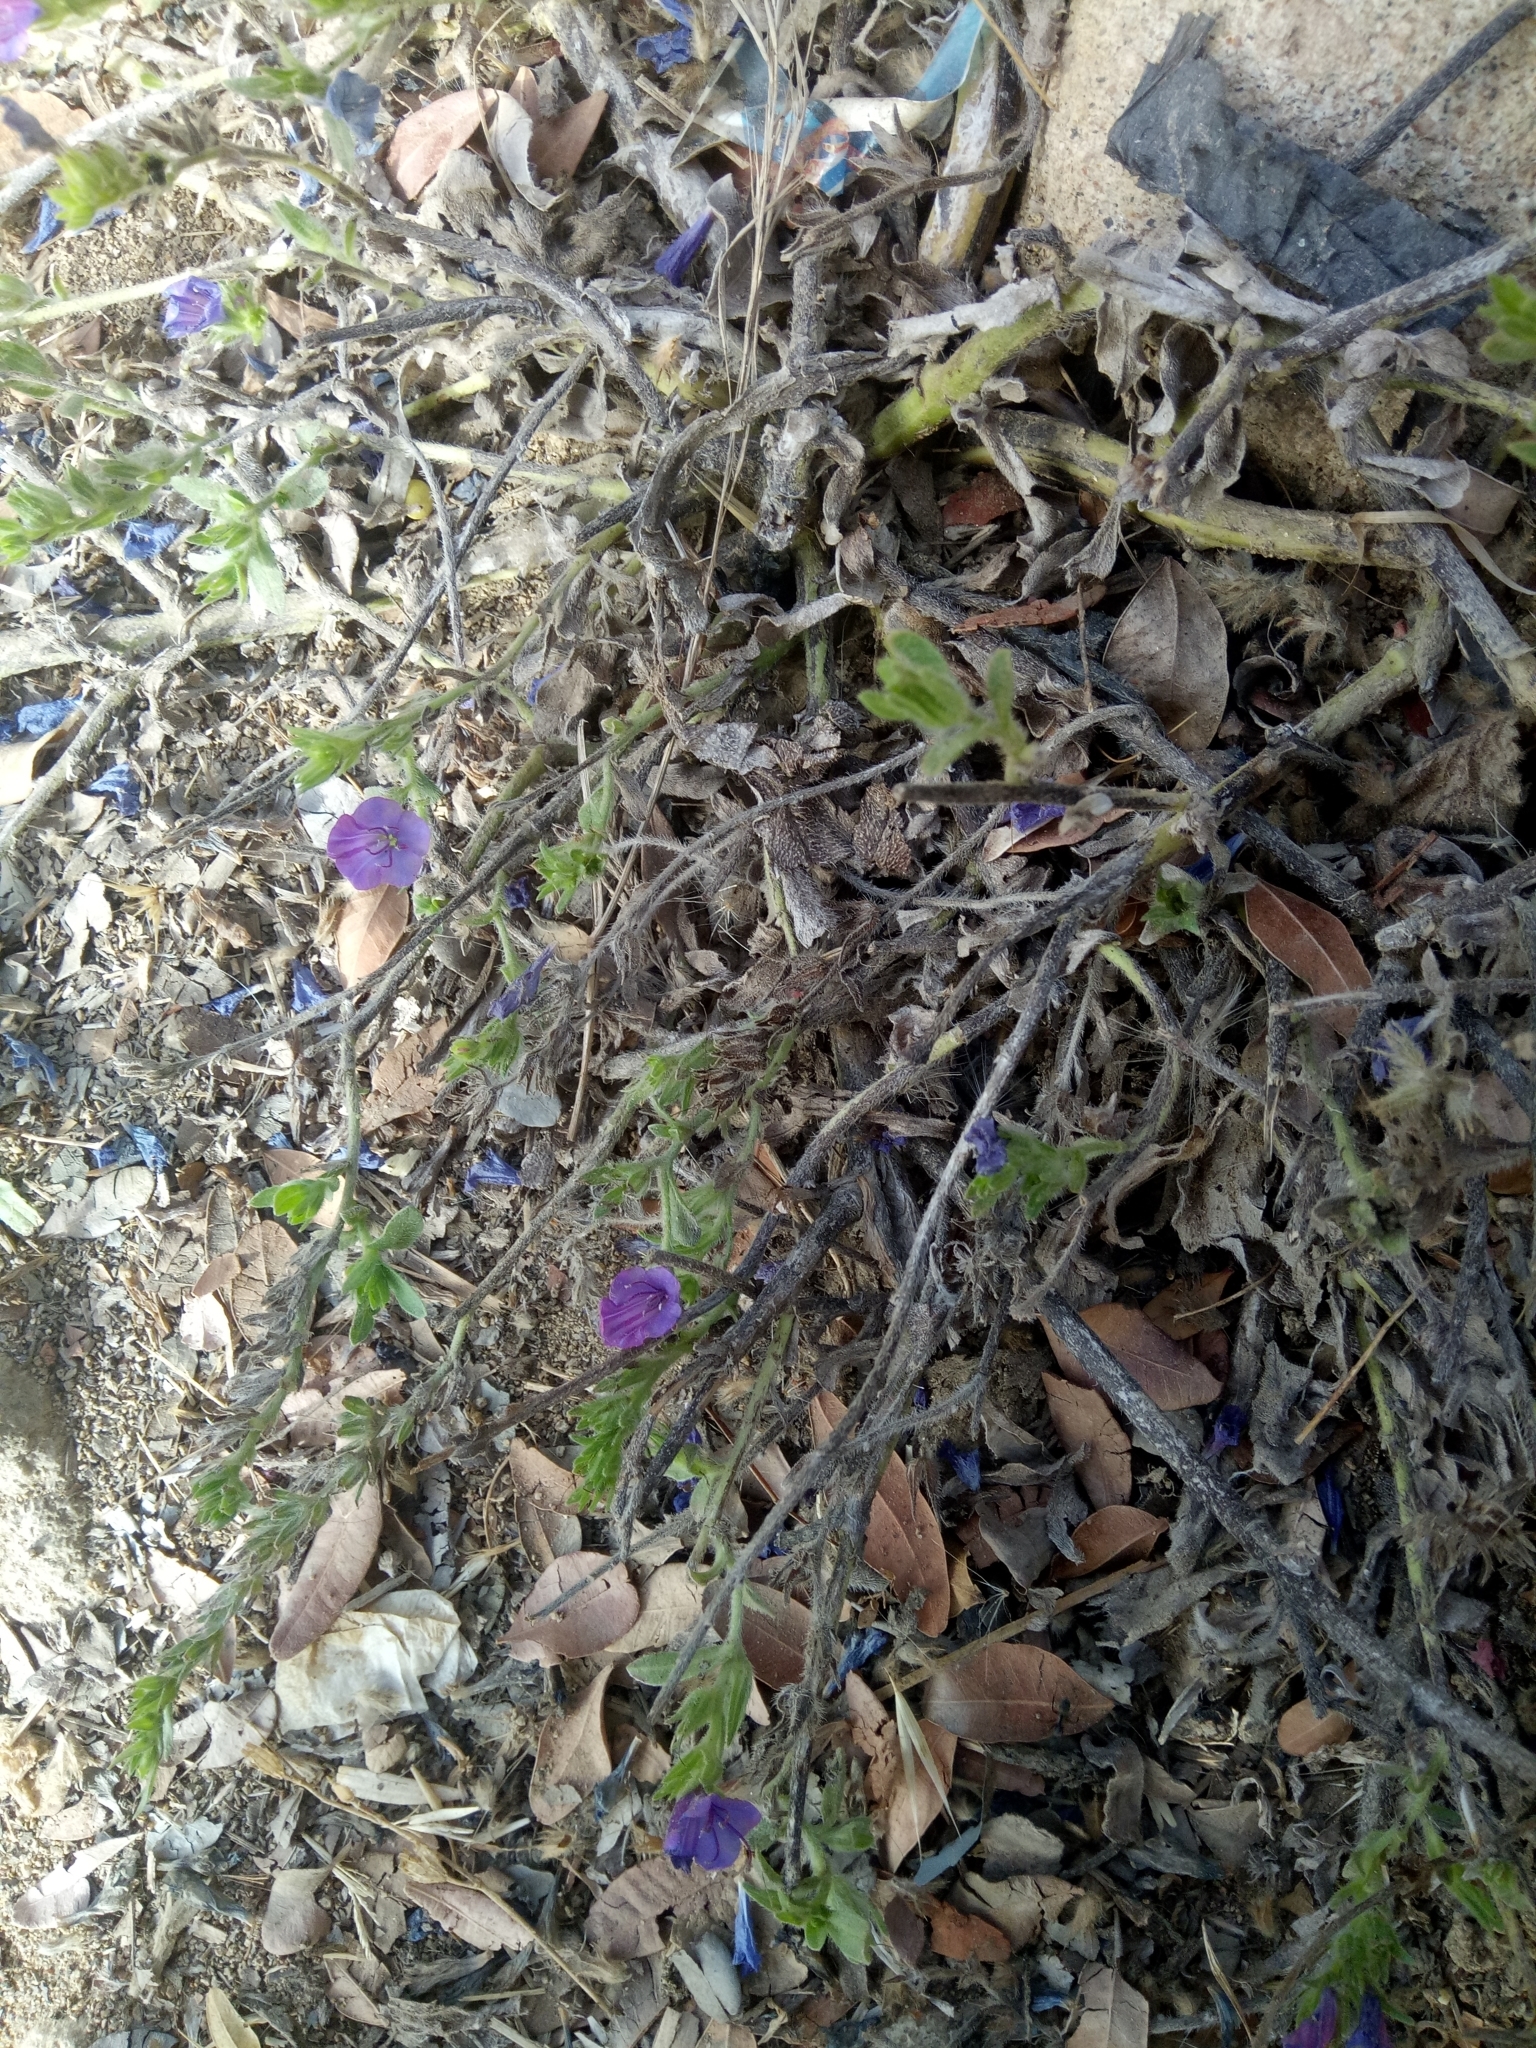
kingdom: Plantae
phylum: Tracheophyta
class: Magnoliopsida
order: Boraginales
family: Boraginaceae
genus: Echium
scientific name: Echium plantagineum
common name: Purple viper's-bugloss
